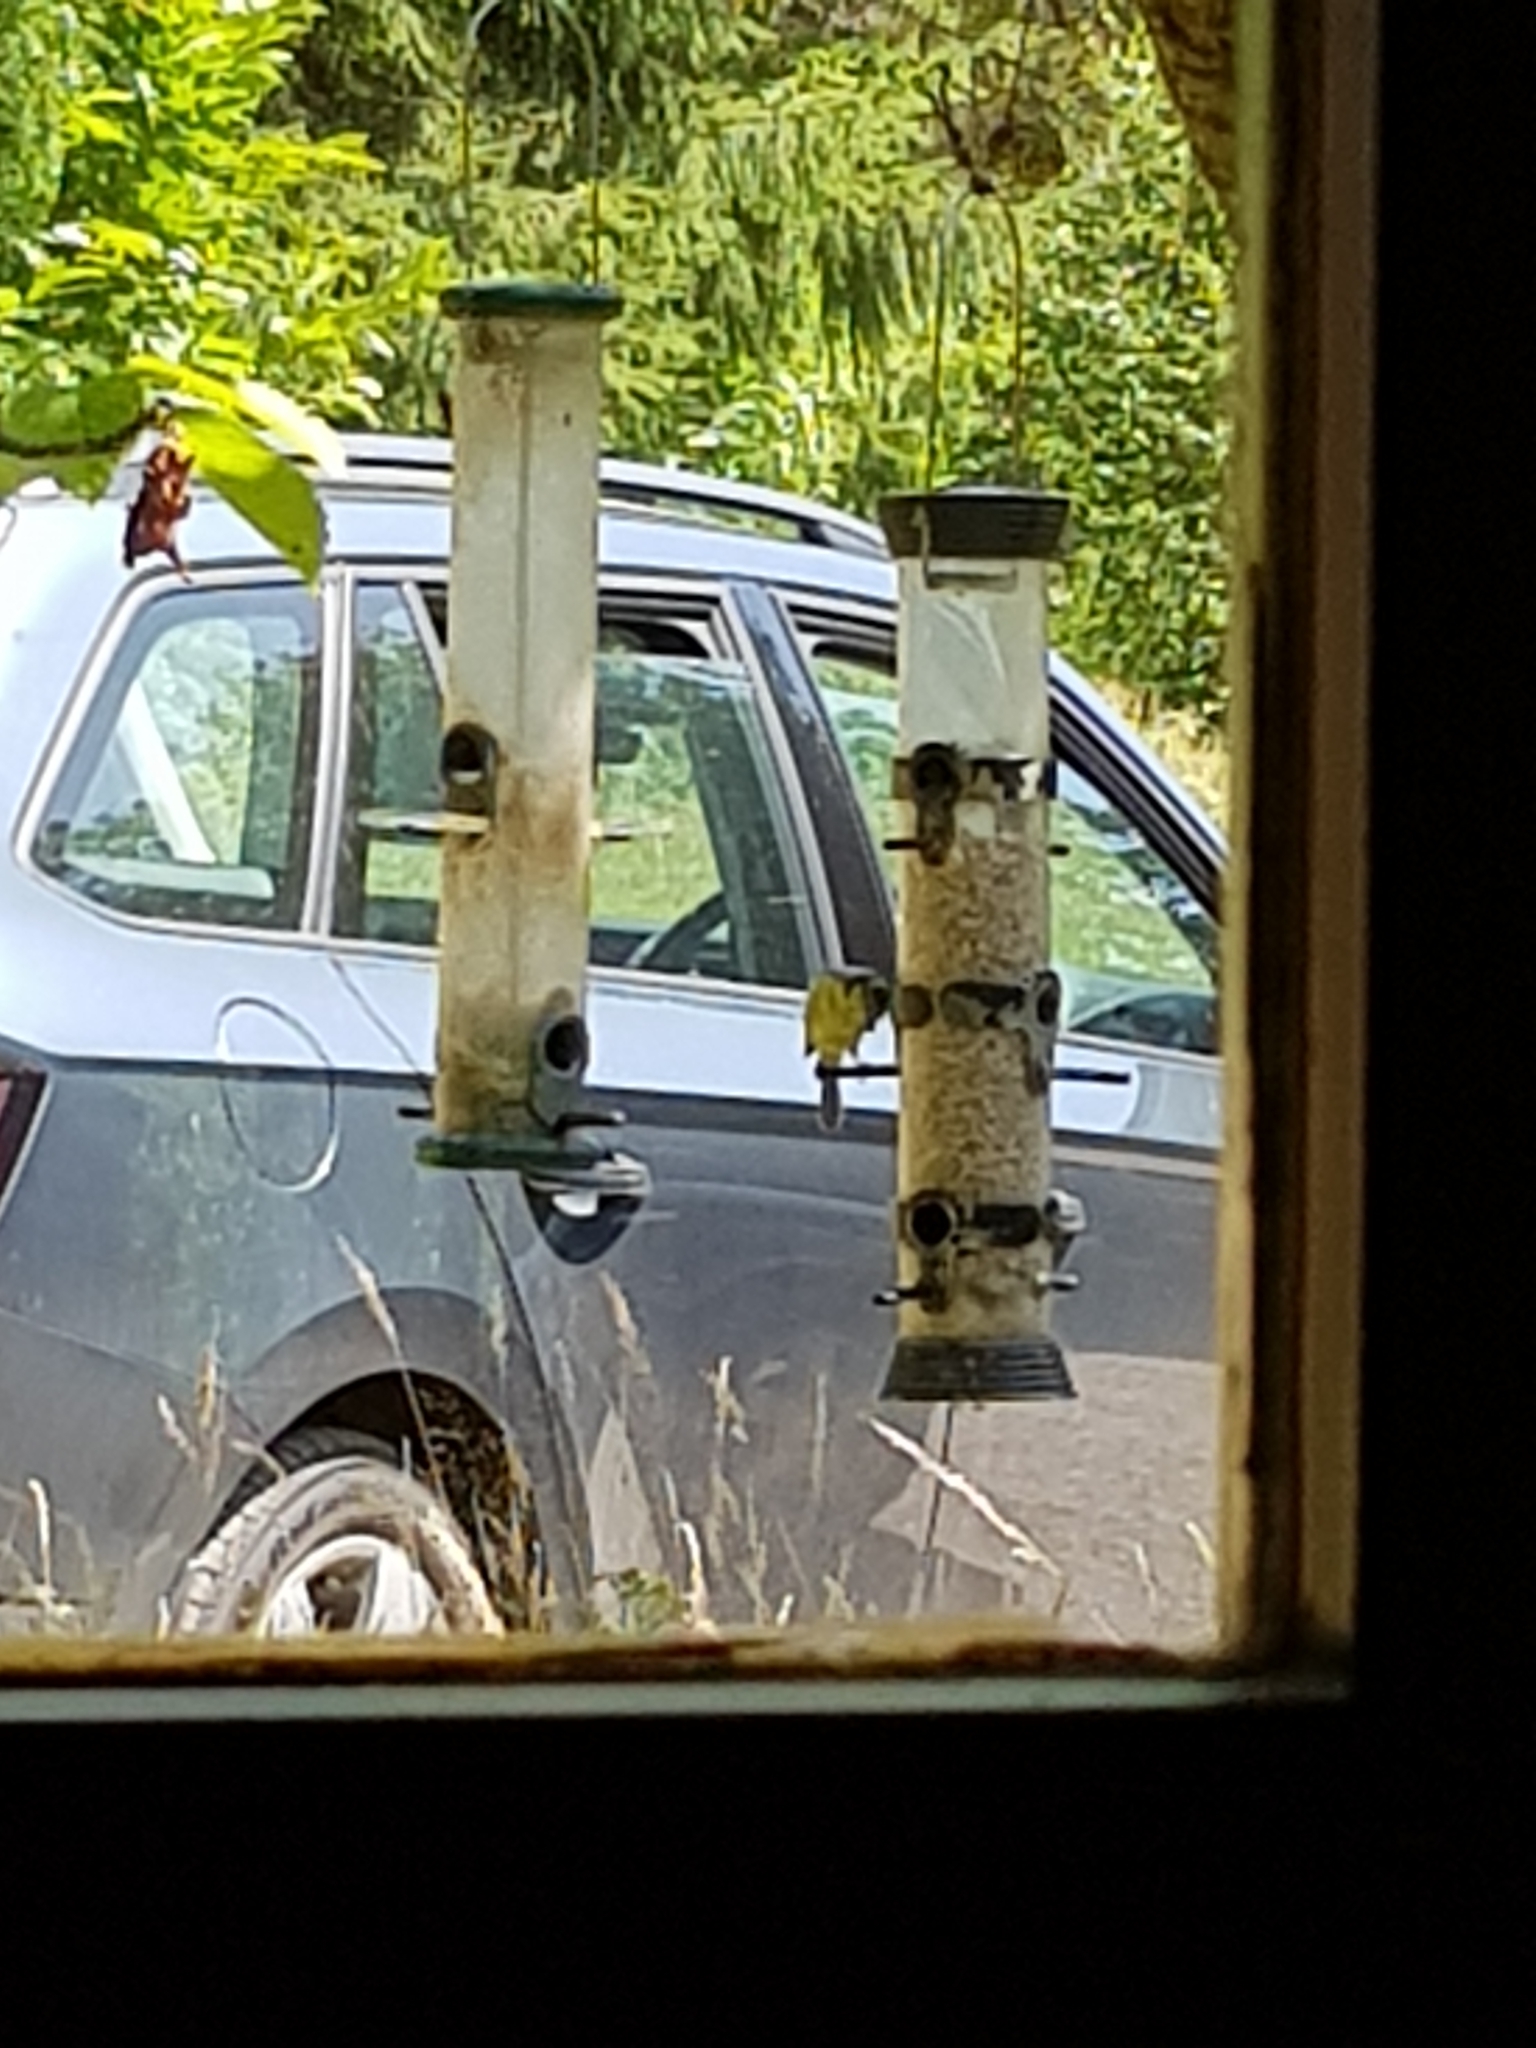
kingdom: Animalia
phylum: Chordata
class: Aves
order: Passeriformes
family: Paridae
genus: Cyanistes
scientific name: Cyanistes caeruleus
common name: Eurasian blue tit
